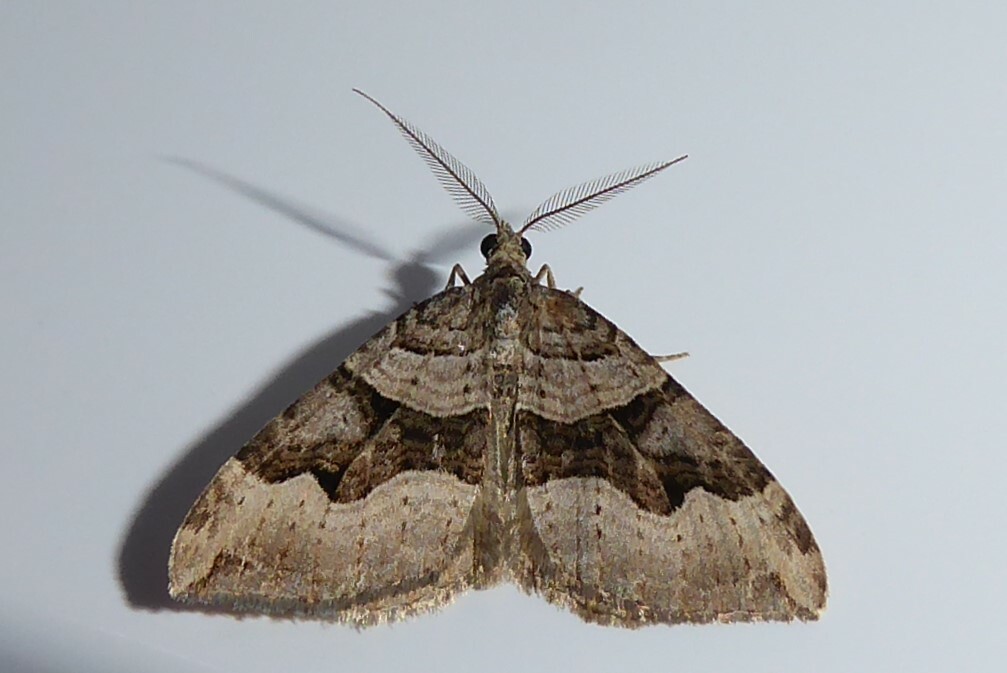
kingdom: Animalia
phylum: Arthropoda
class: Insecta
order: Lepidoptera
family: Geometridae
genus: Xanthorhoe
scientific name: Xanthorhoe semifissata
